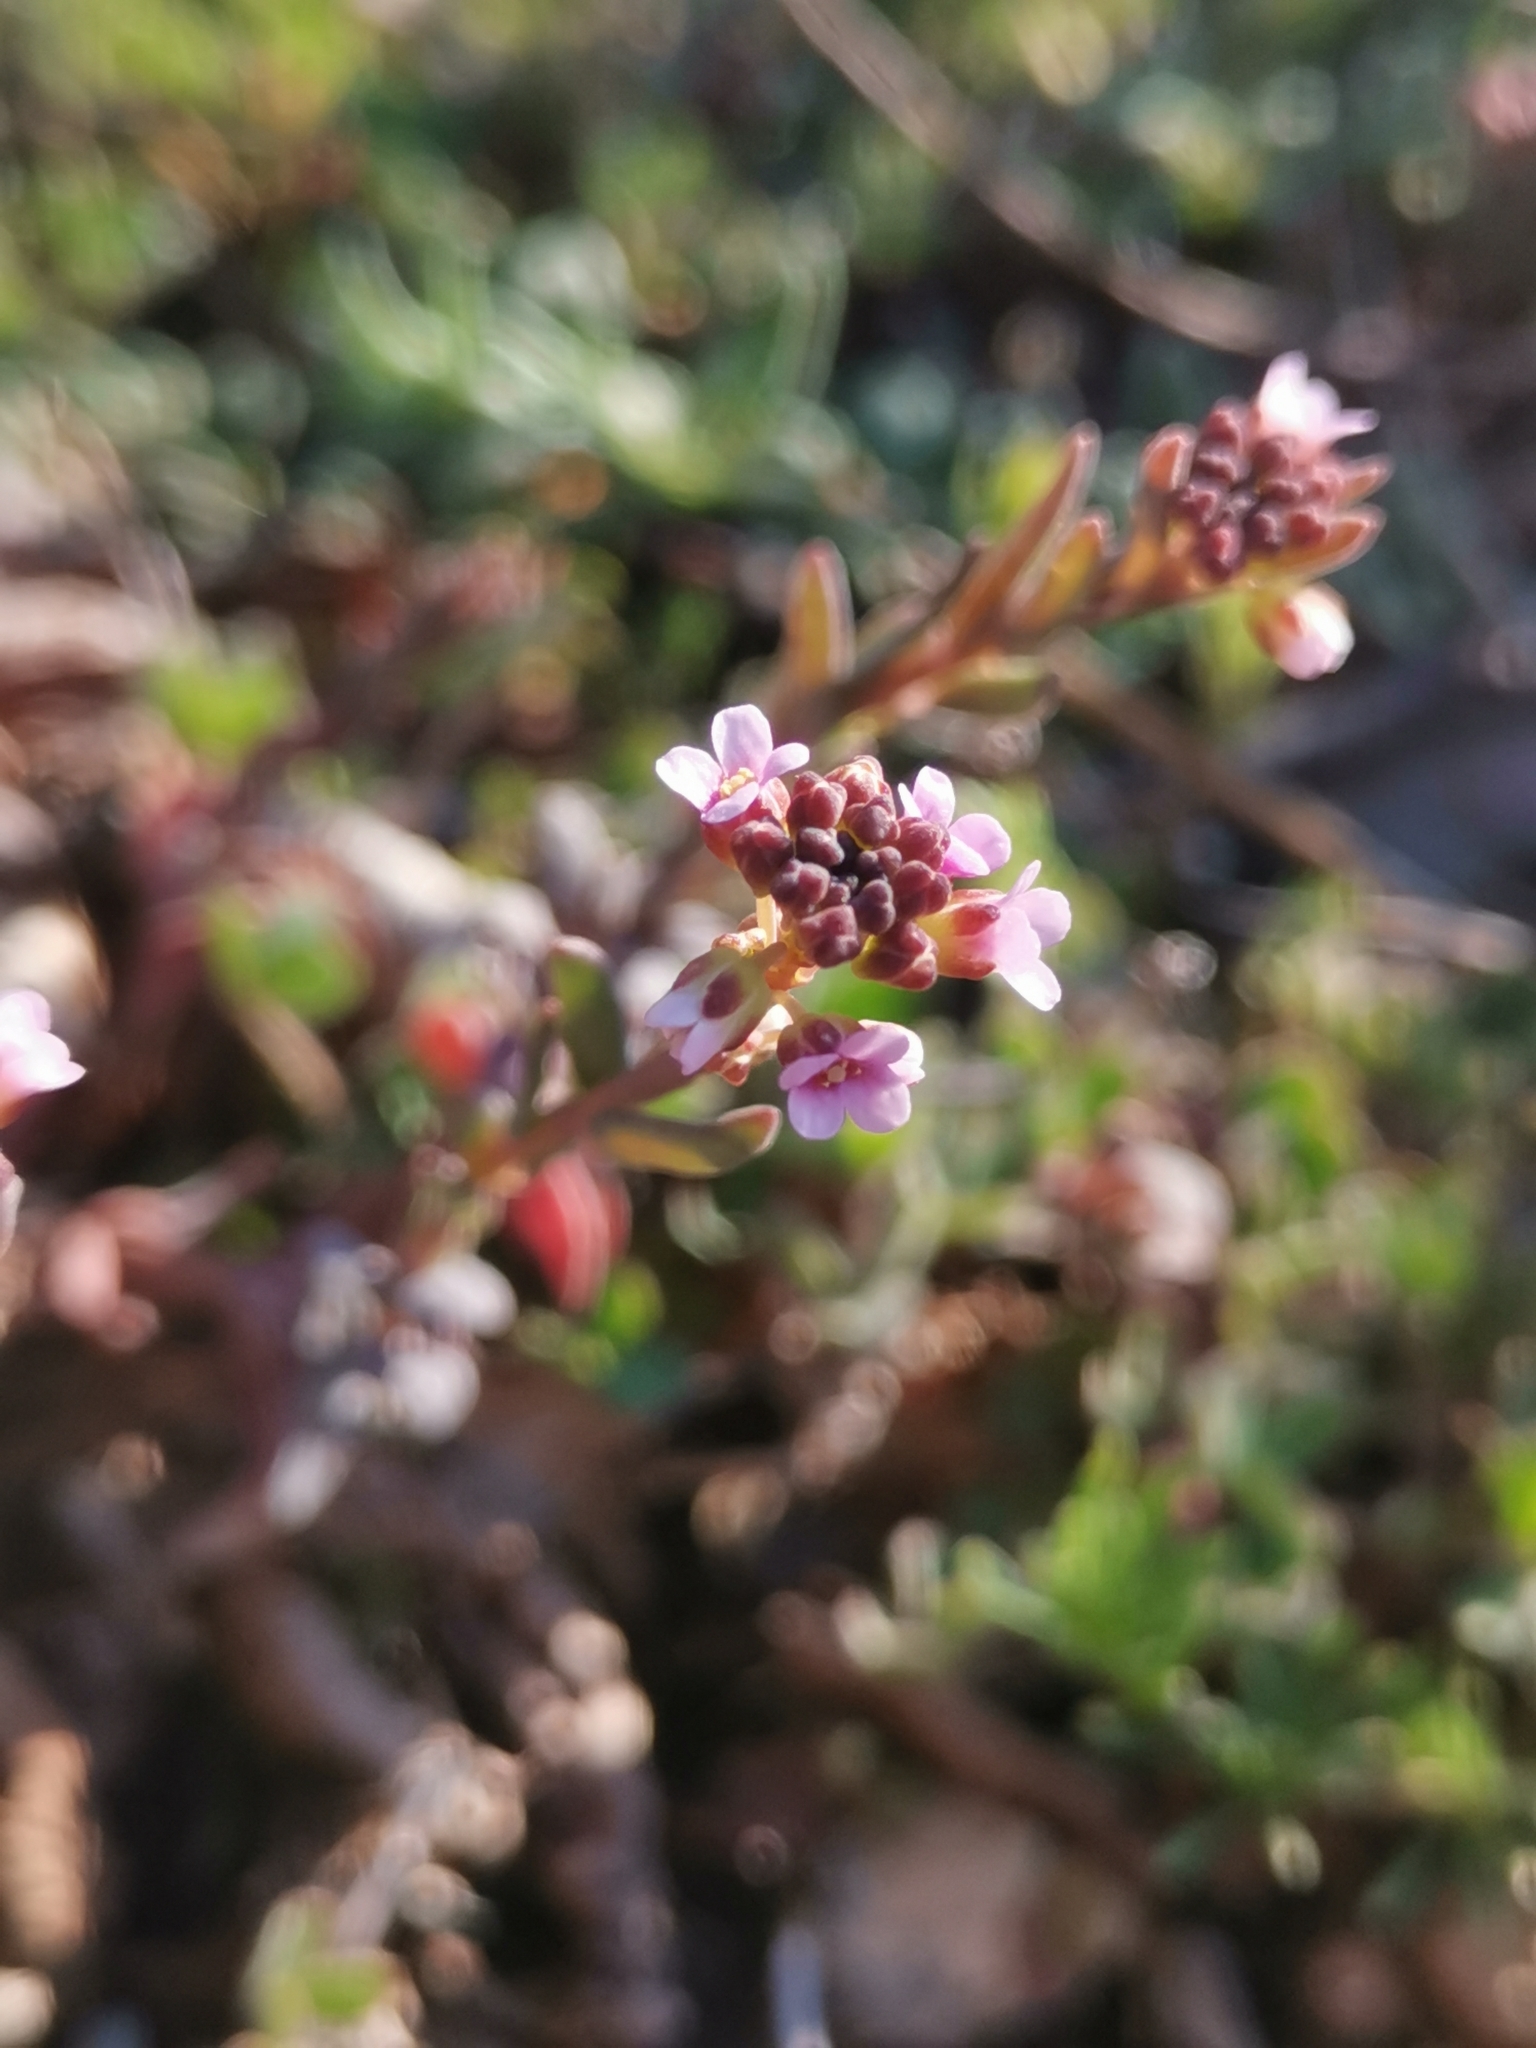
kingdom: Plantae
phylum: Tracheophyta
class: Magnoliopsida
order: Brassicales
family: Brassicaceae
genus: Aethionema
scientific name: Aethionema saxatile
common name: Burnt candytuft
